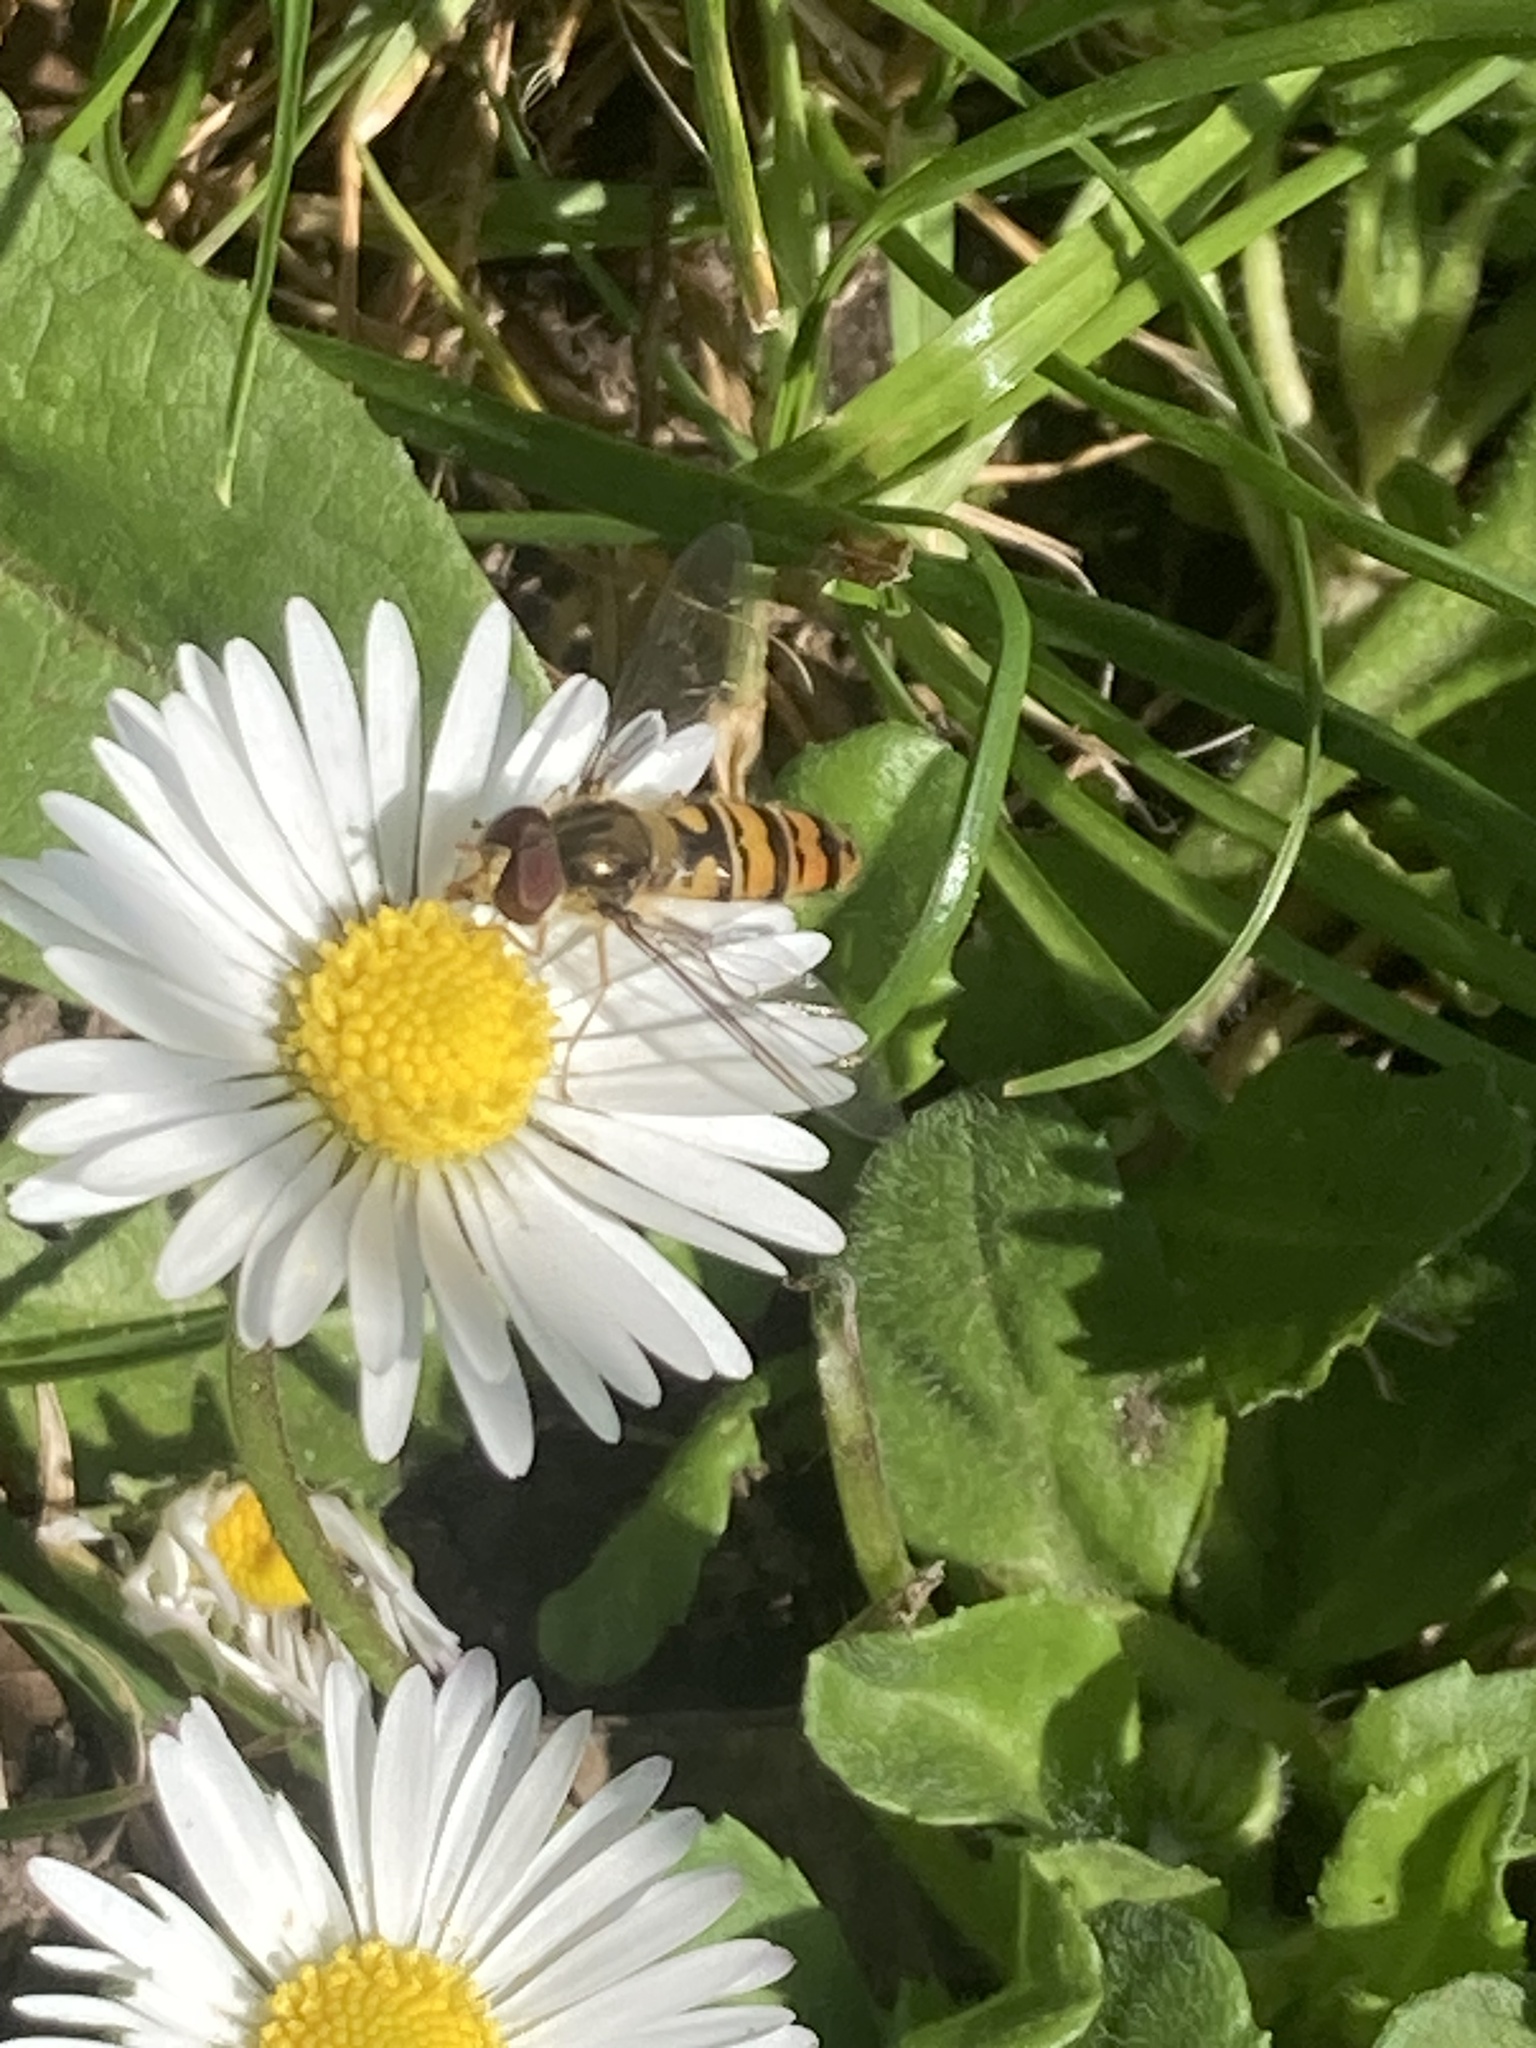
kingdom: Animalia
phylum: Arthropoda
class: Insecta
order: Diptera
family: Syrphidae
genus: Episyrphus
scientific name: Episyrphus balteatus
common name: Marmalade hoverfly
